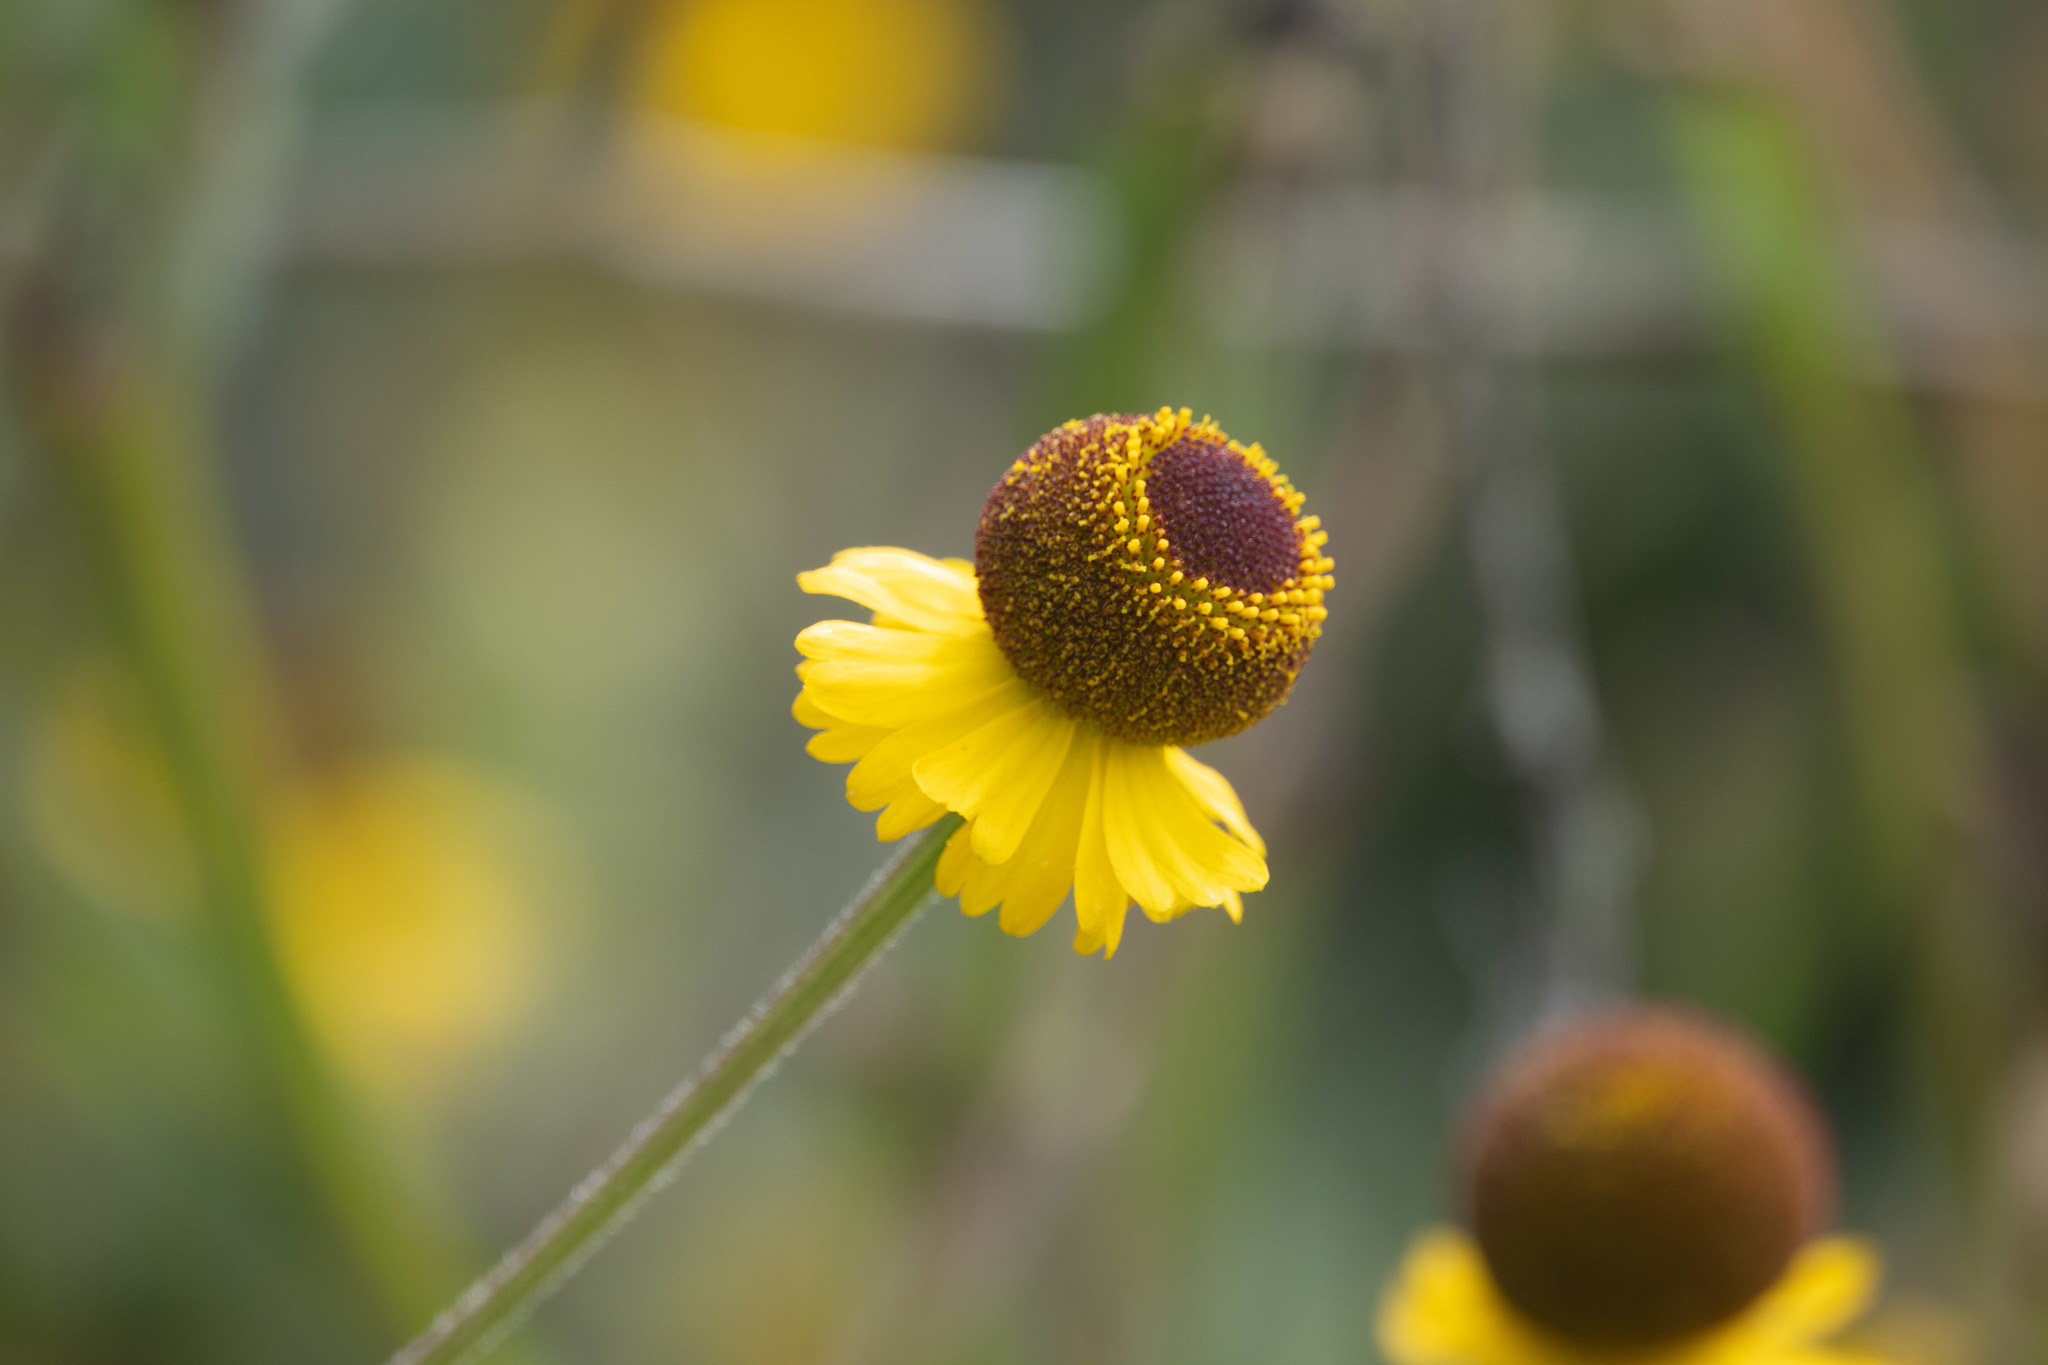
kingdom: Plantae
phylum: Tracheophyta
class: Magnoliopsida
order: Asterales
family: Asteraceae
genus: Helenium
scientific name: Helenium puberulum
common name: Sneezewort
